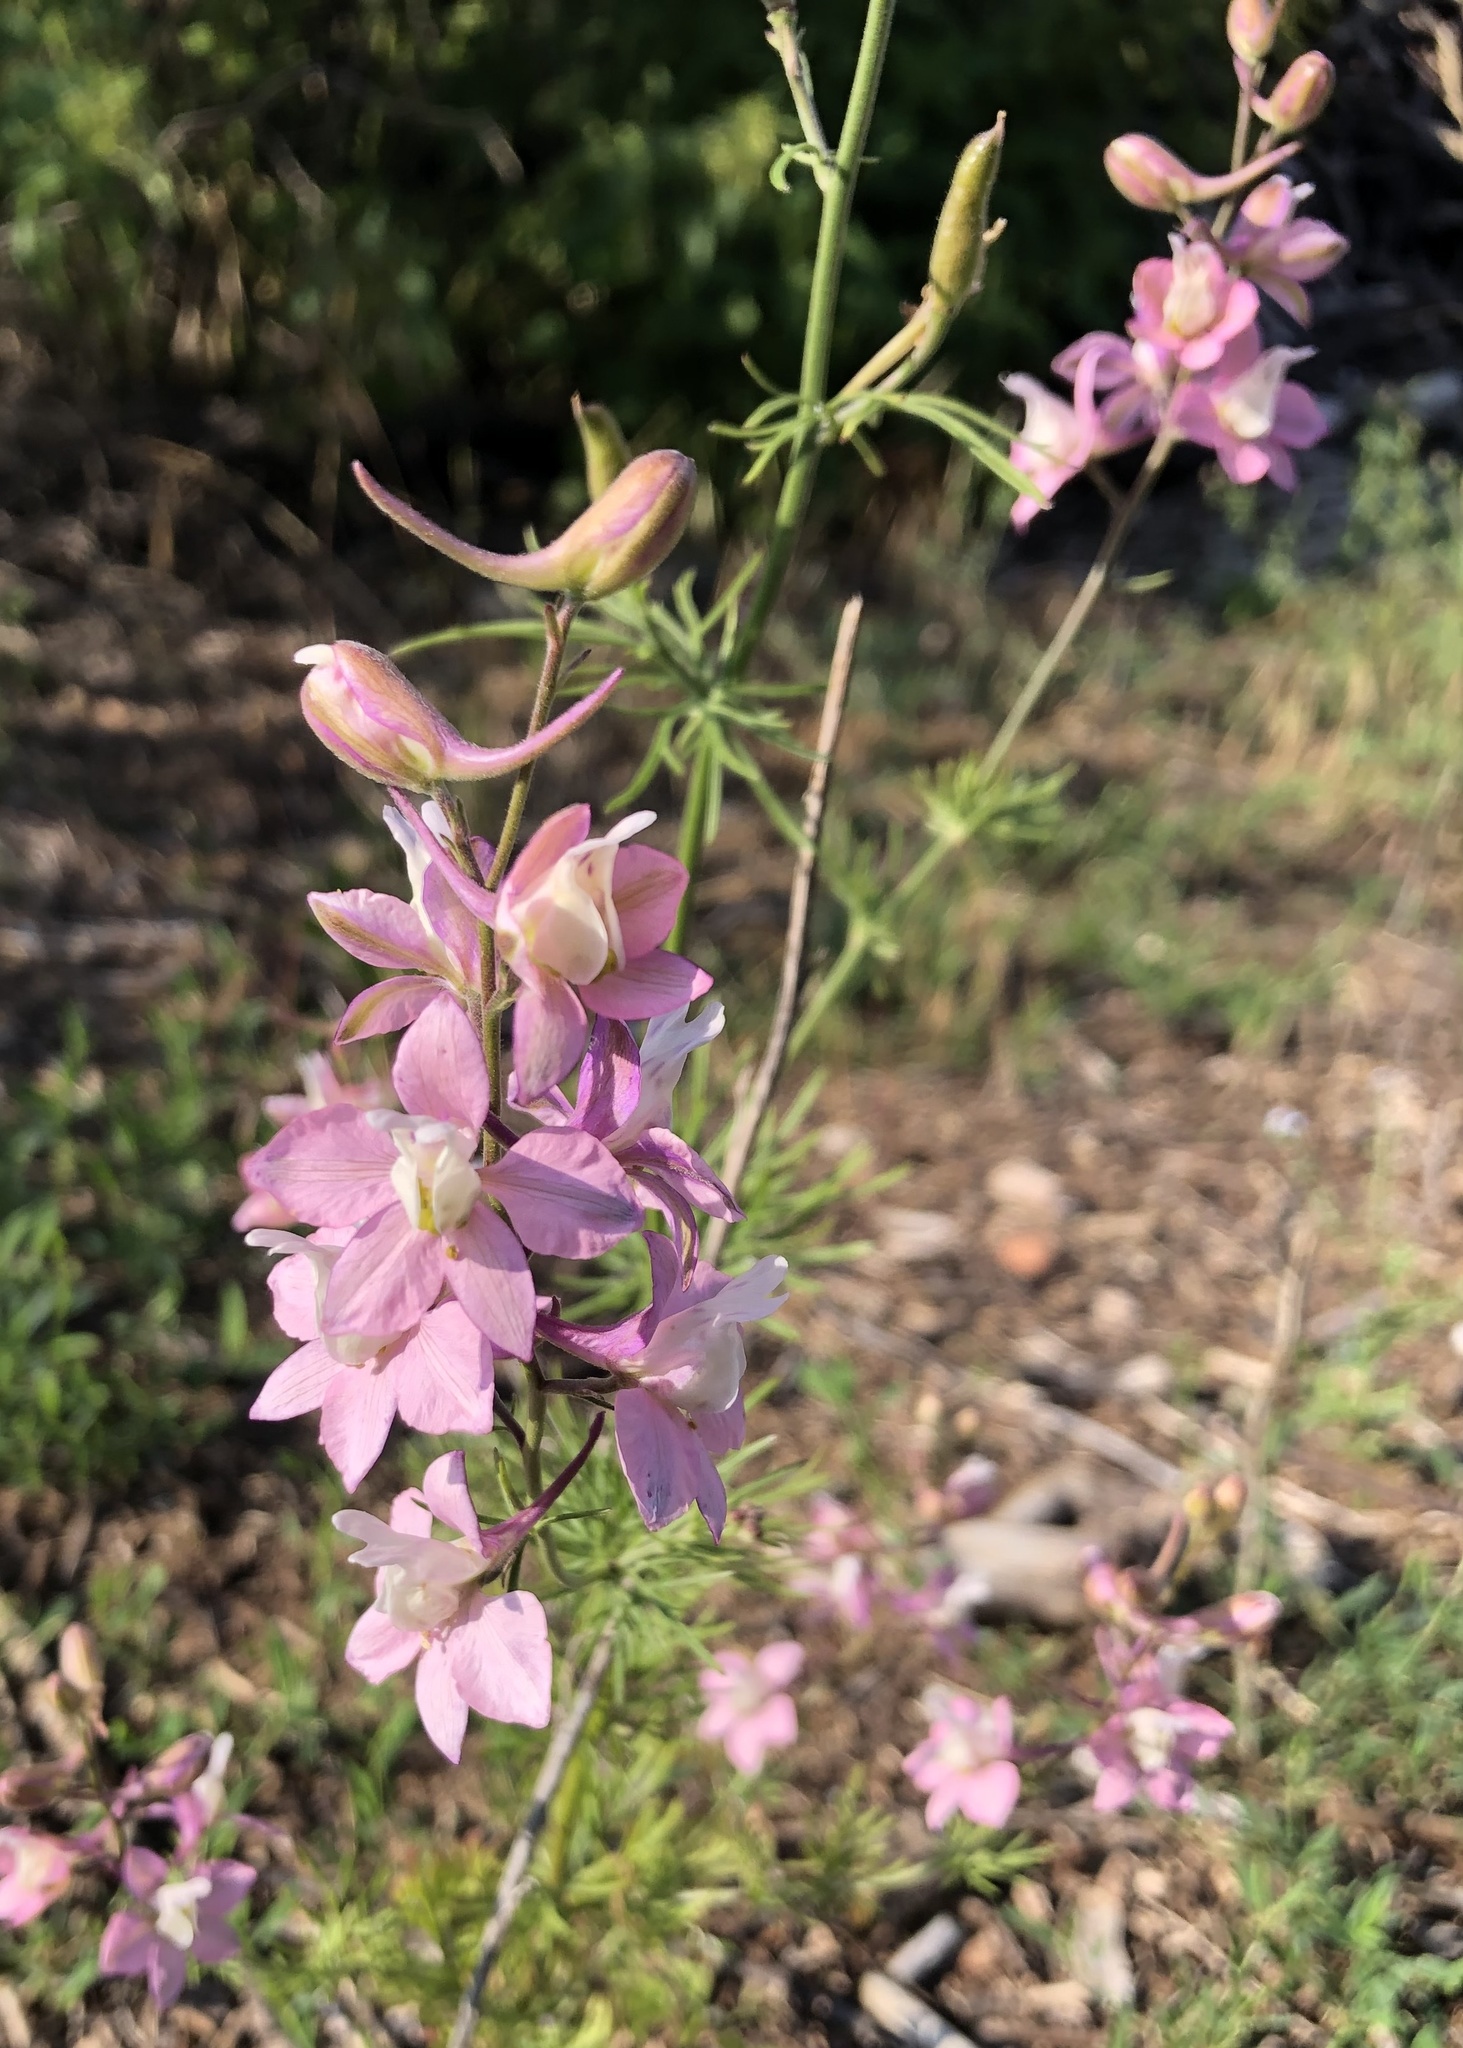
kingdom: Plantae
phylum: Tracheophyta
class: Magnoliopsida
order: Ranunculales
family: Ranunculaceae
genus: Delphinium
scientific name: Delphinium ajacis
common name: Doubtful knight's-spur
